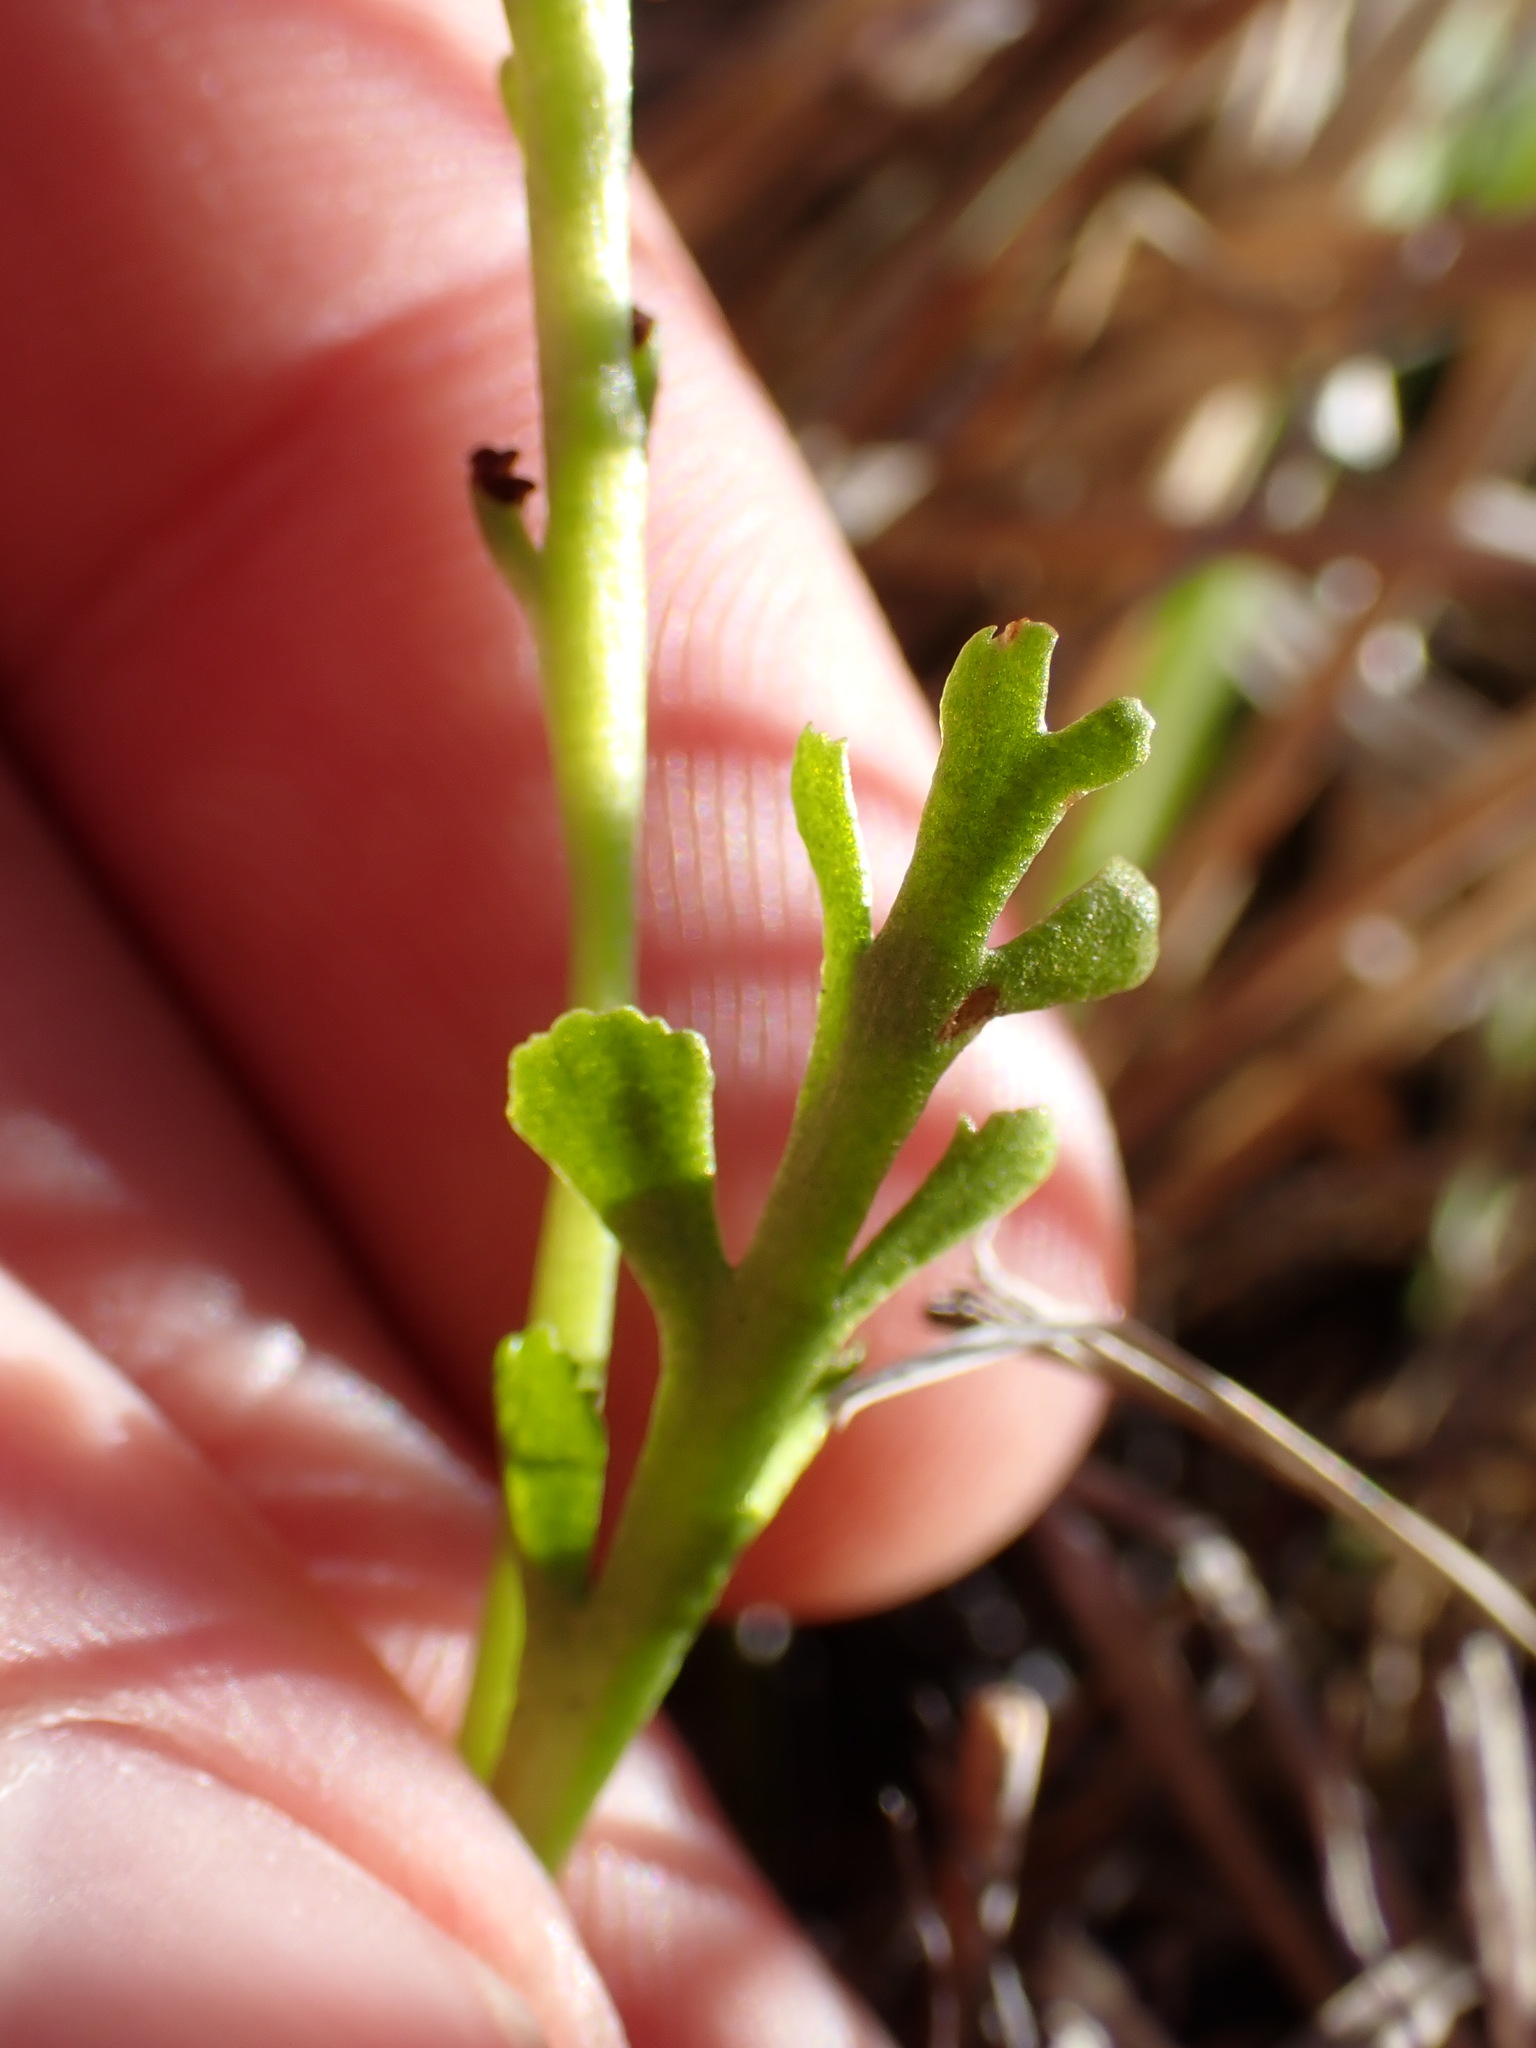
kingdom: Plantae
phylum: Tracheophyta
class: Polypodiopsida
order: Ophioglossales
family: Ophioglossaceae
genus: Botrychium
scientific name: Botrychium ascendens
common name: Ascending grapefern
